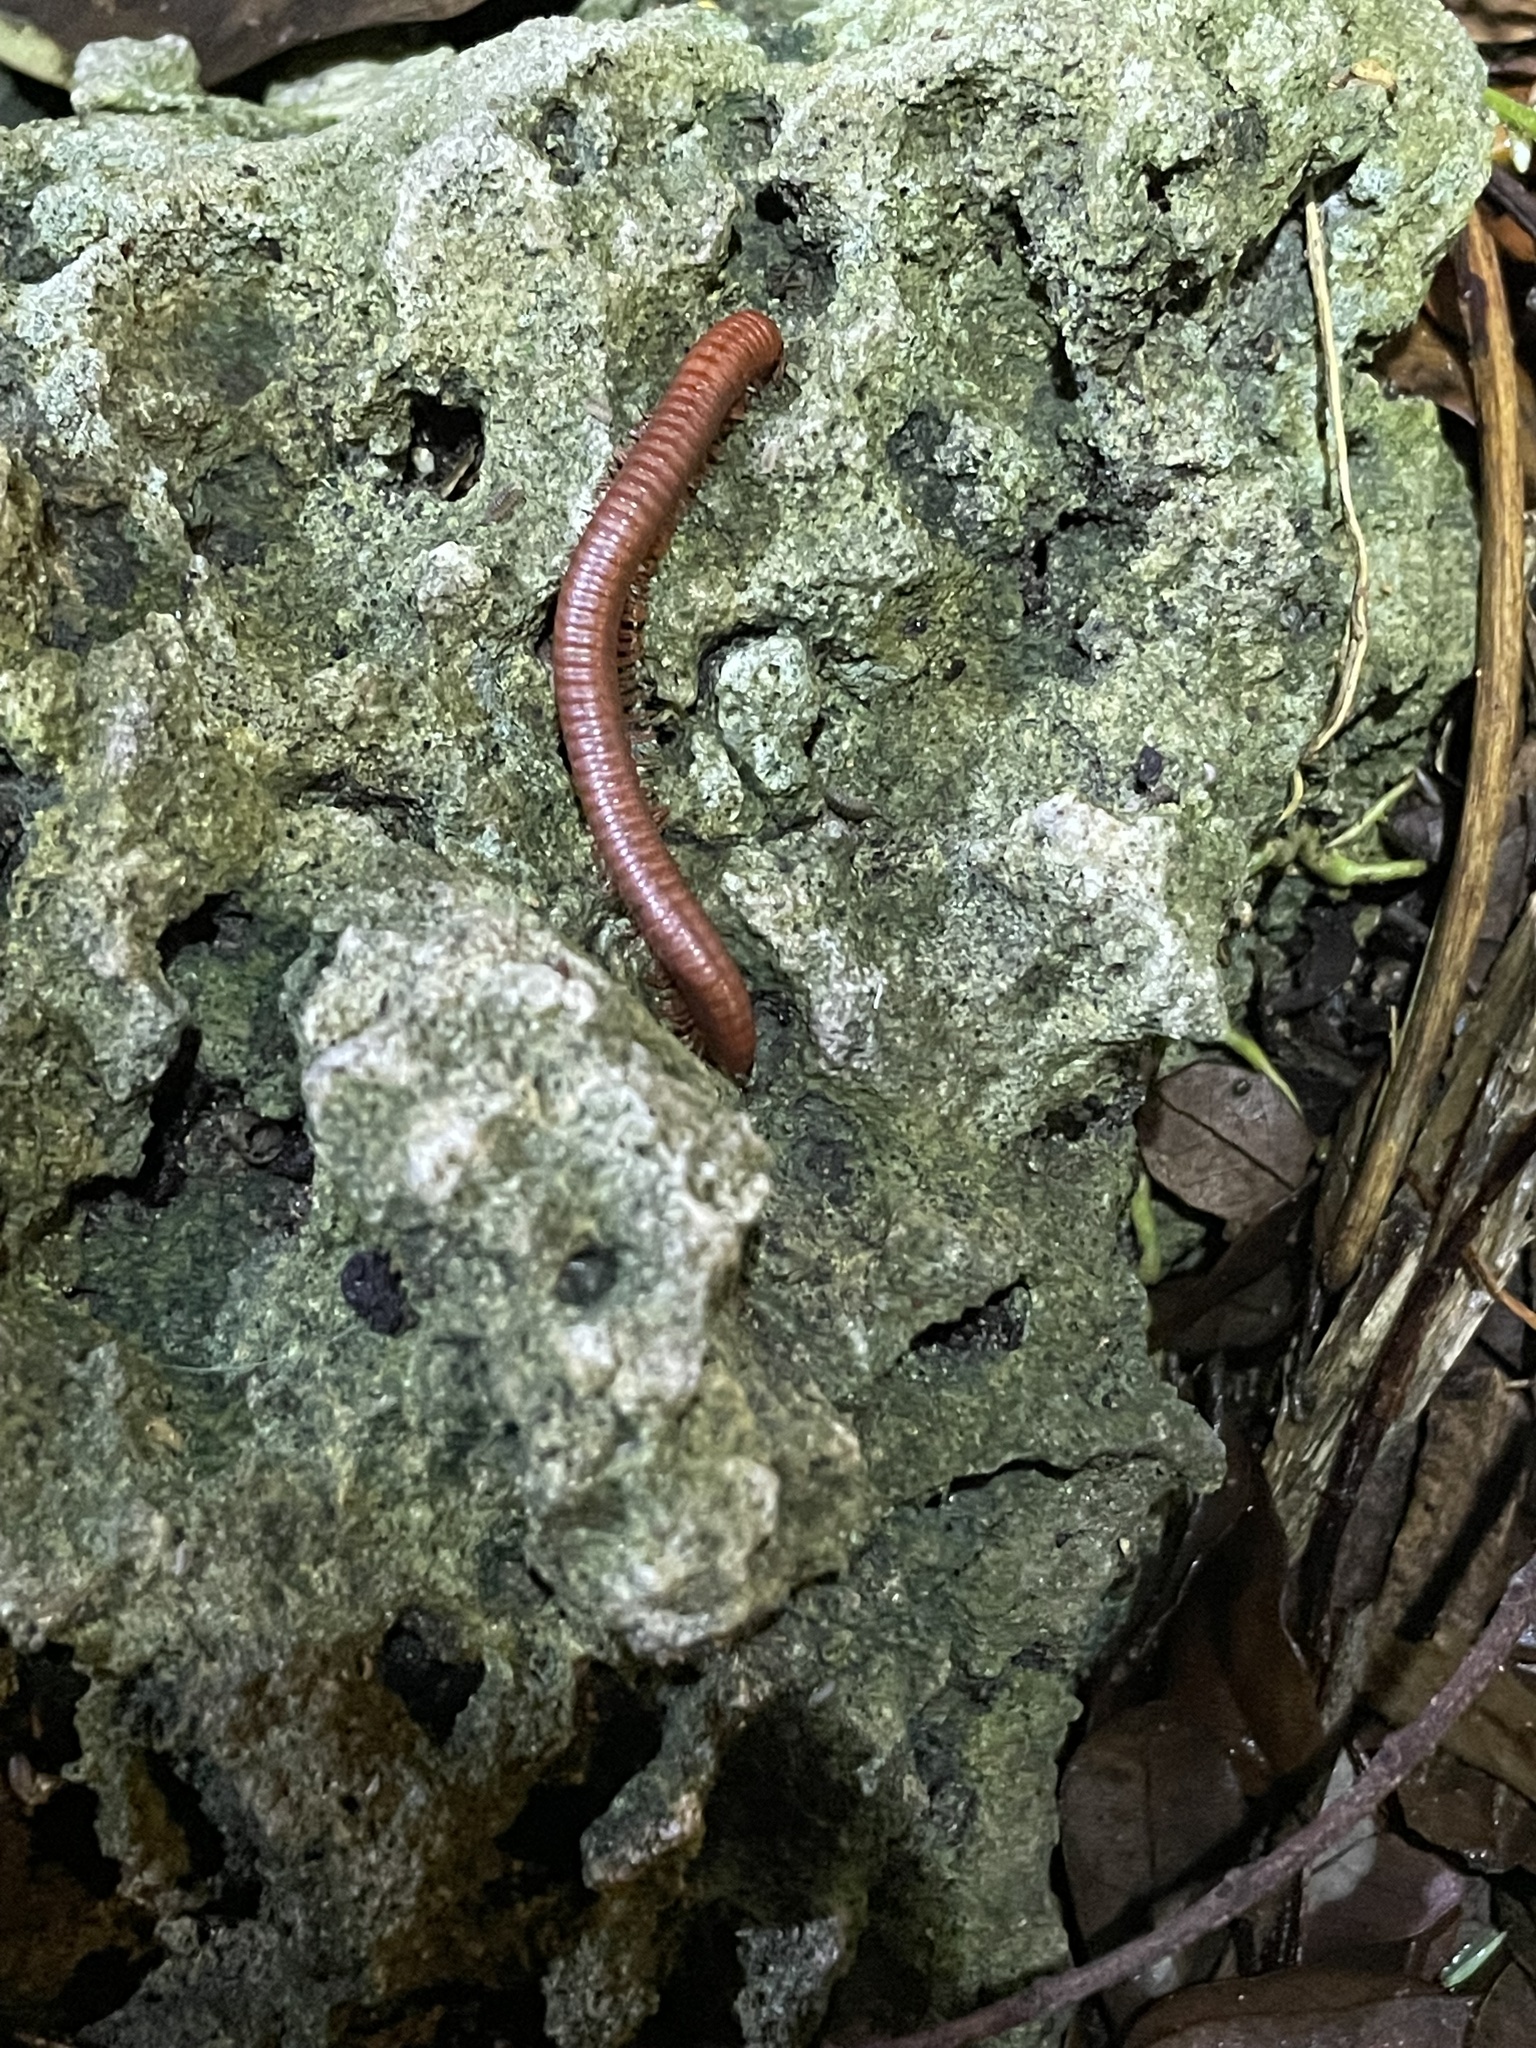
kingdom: Animalia
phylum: Arthropoda
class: Diplopoda
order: Spirobolida
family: Pachybolidae
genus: Trigoniulus
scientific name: Trigoniulus corallinus
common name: Millipede
